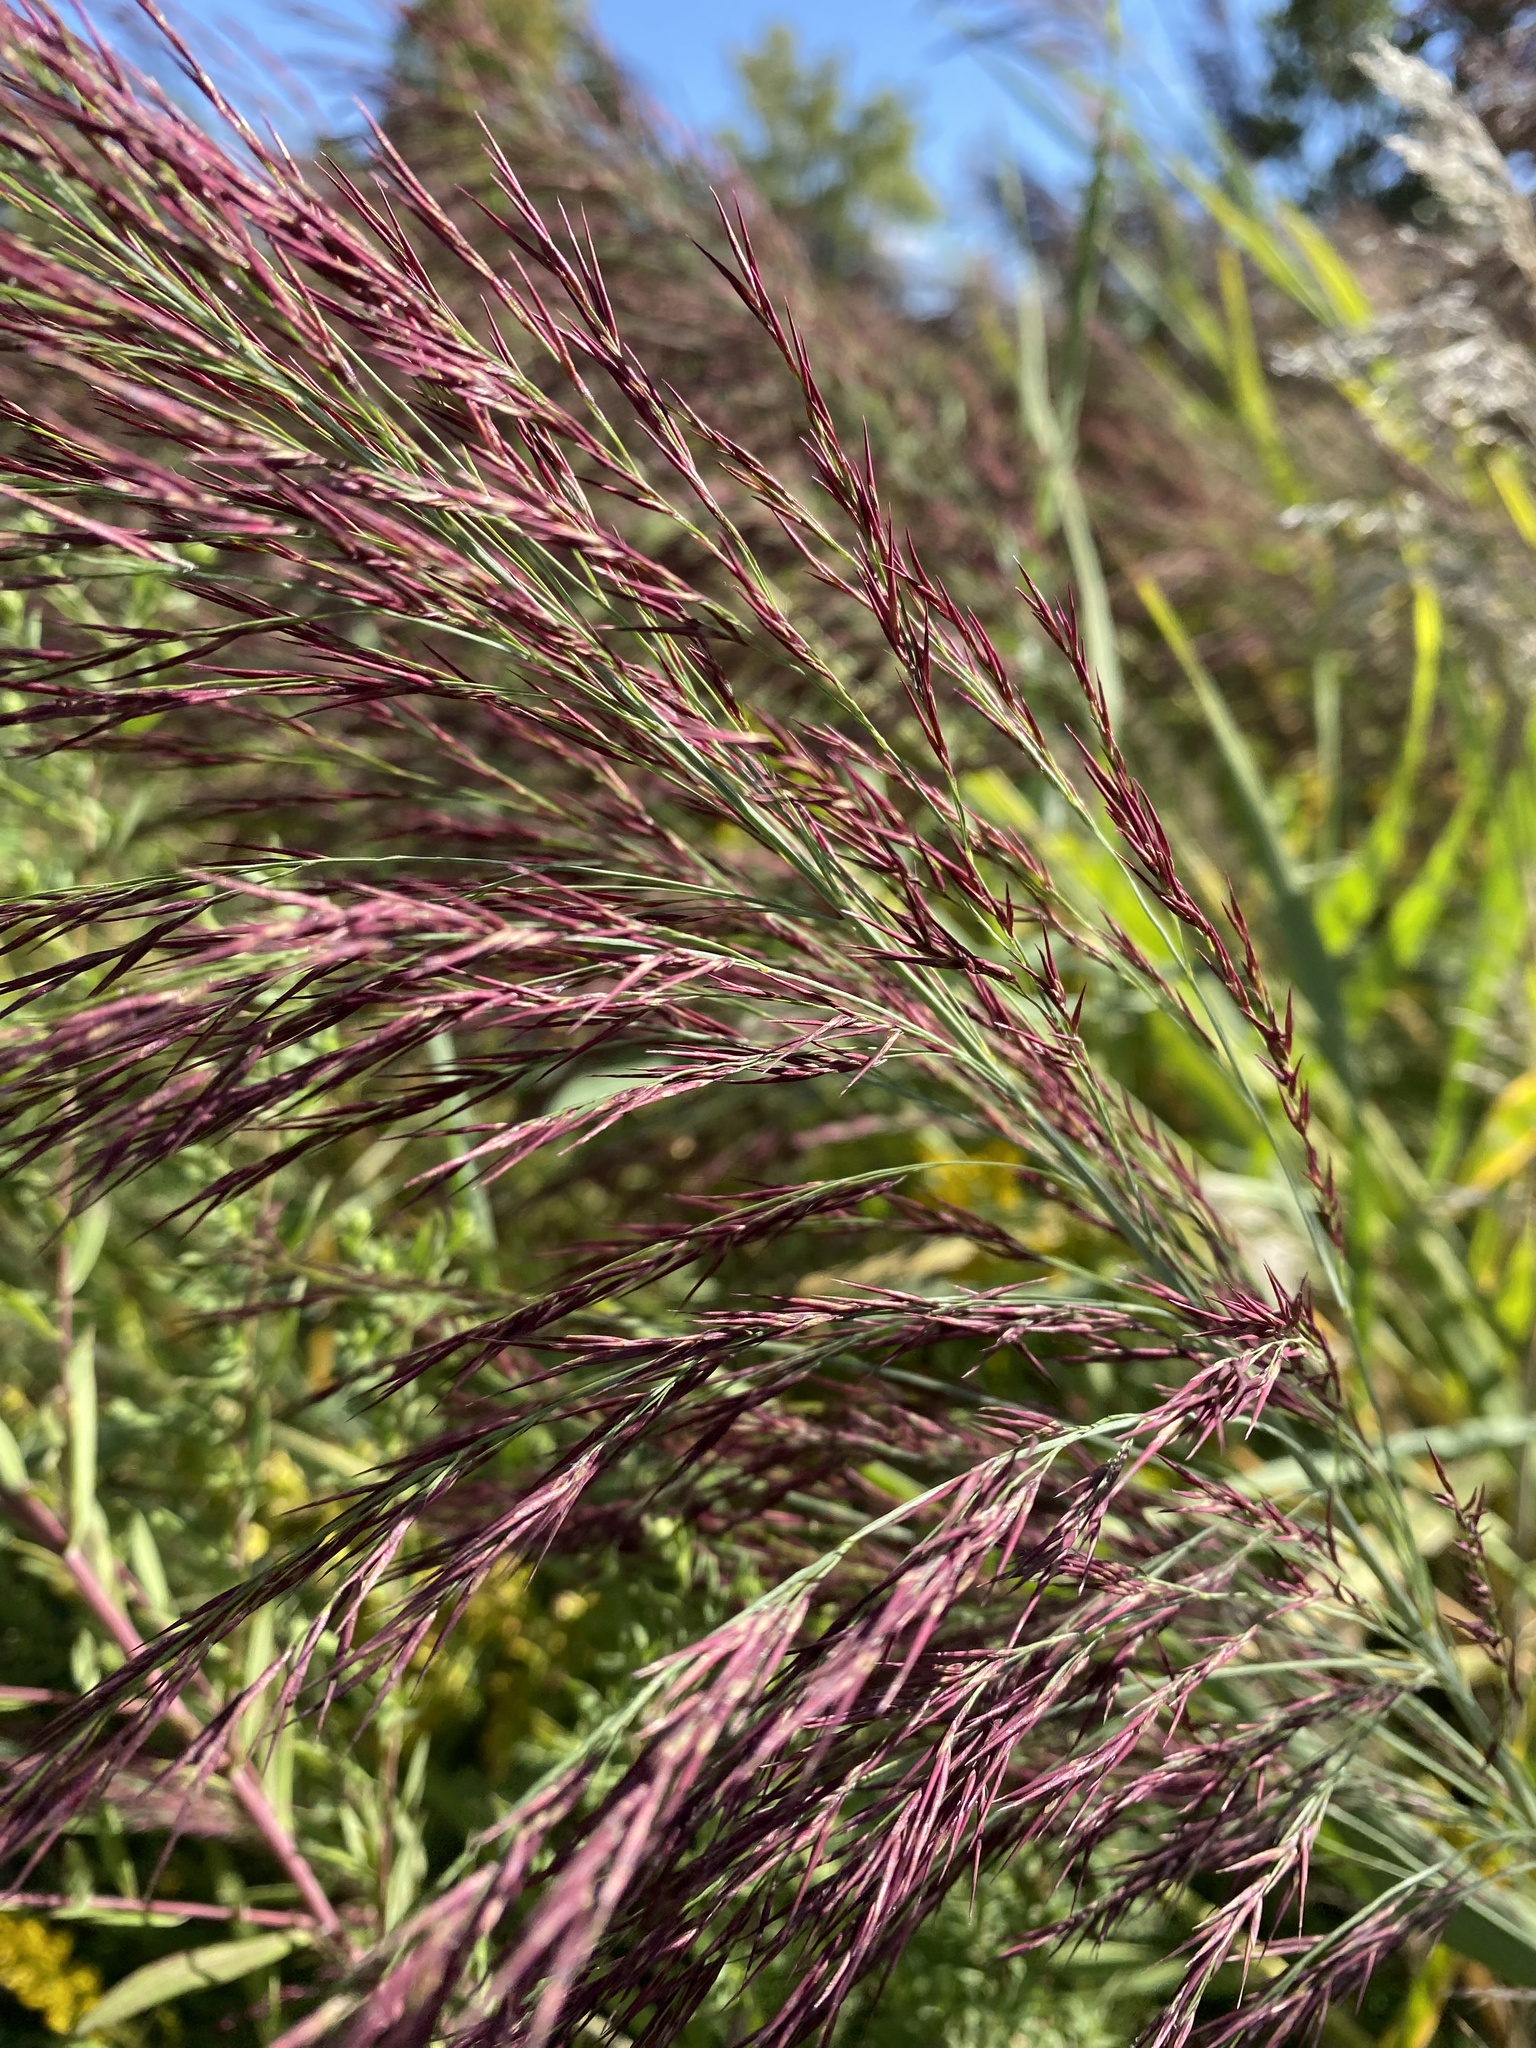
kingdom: Plantae
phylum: Tracheophyta
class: Liliopsida
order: Poales
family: Poaceae
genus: Phragmites
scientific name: Phragmites australis
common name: Common reed
